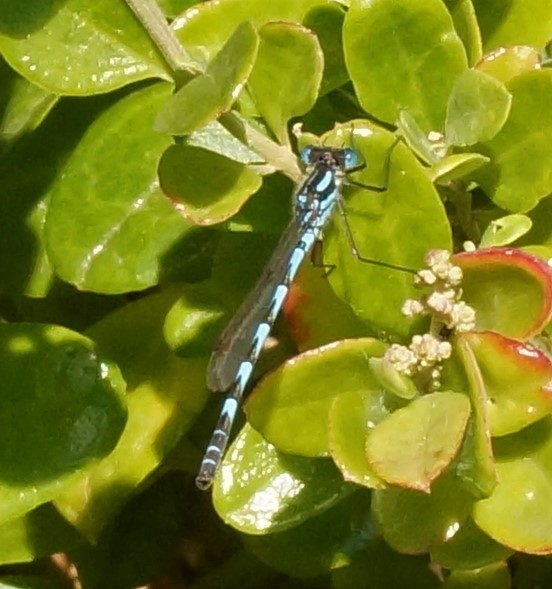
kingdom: Animalia
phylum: Arthropoda
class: Insecta
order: Odonata
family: Lestidae
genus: Austrolestes
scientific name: Austrolestes annulosus
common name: Blue ringtail
